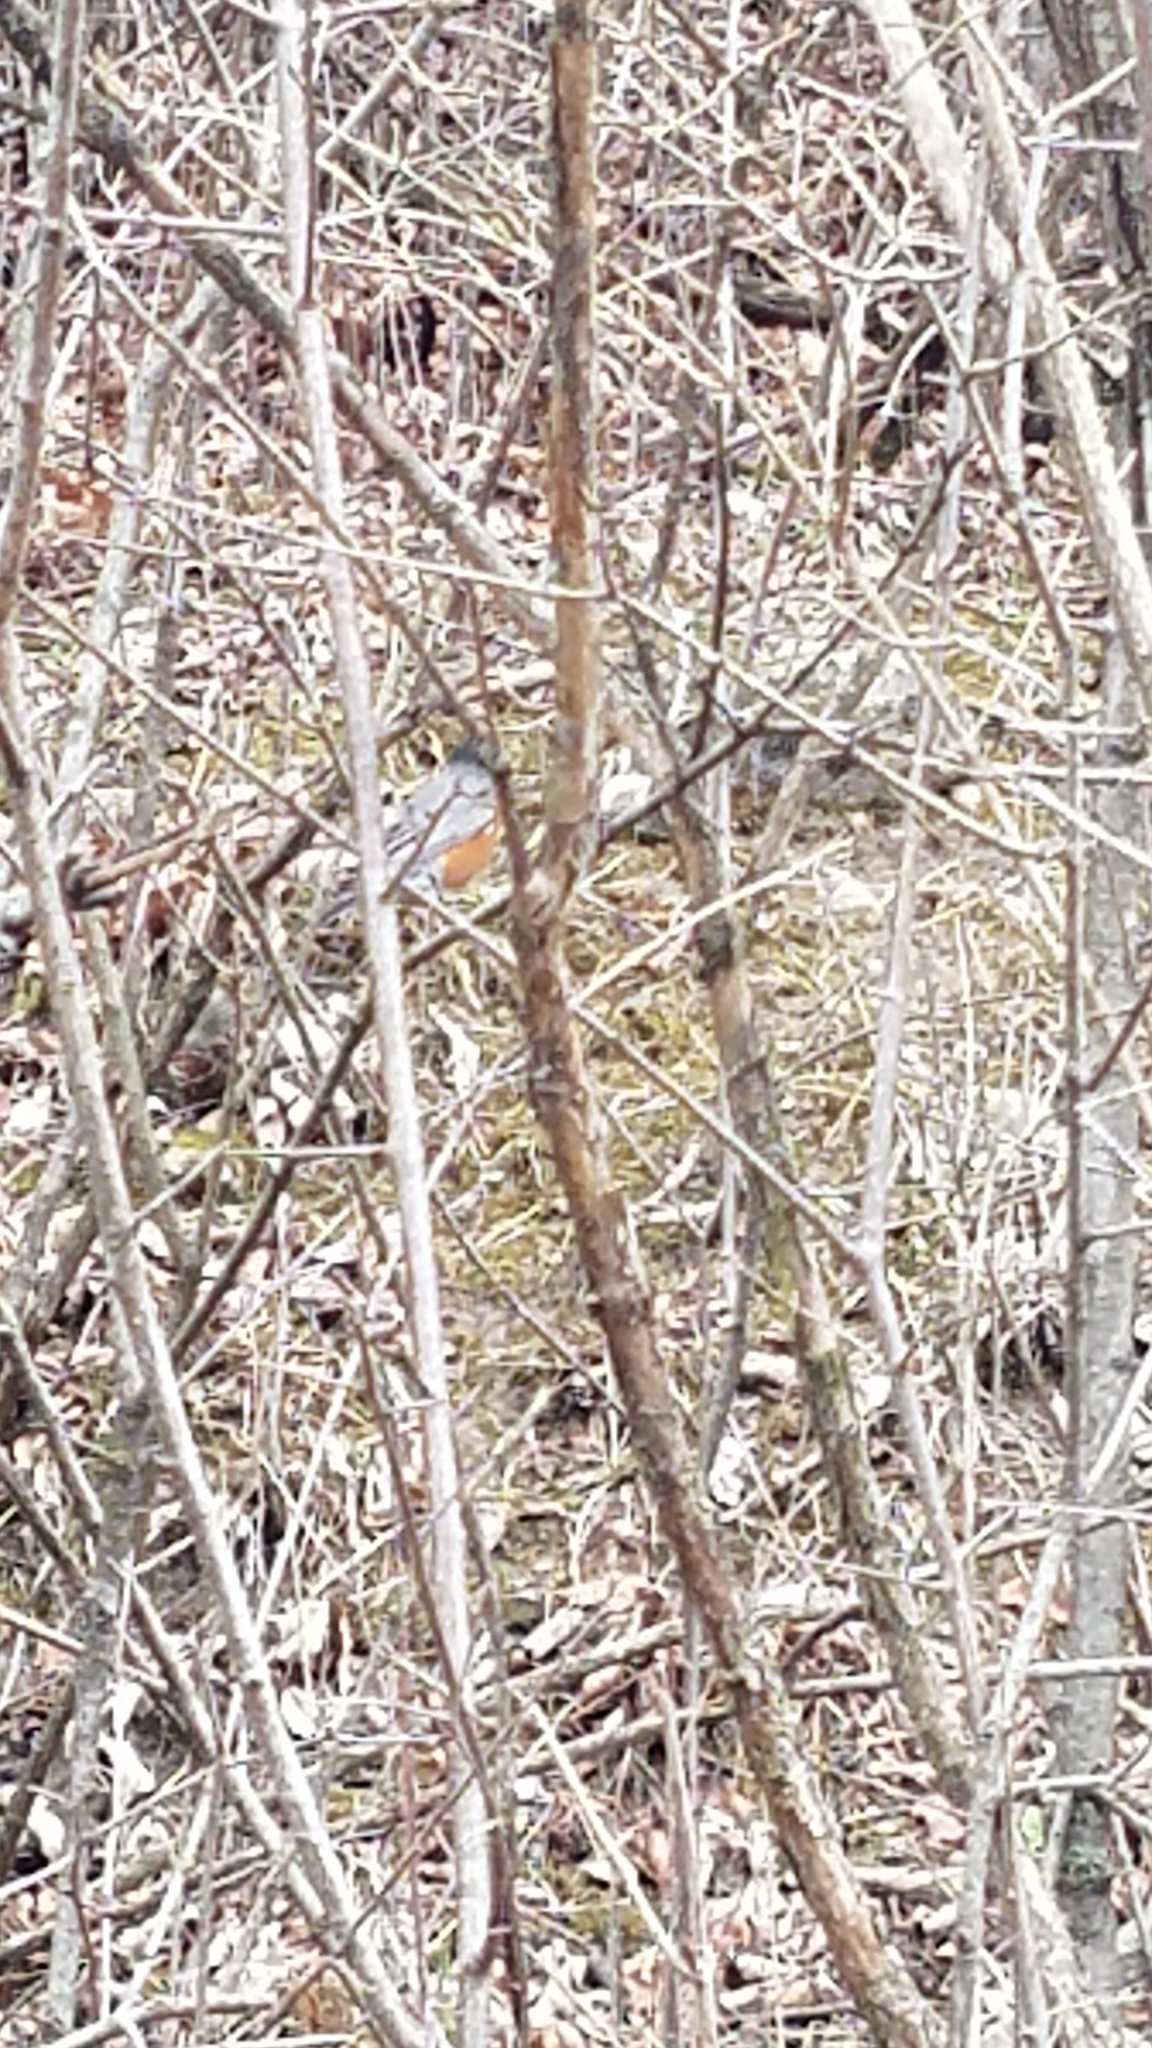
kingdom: Animalia
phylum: Chordata
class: Aves
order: Passeriformes
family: Turdidae
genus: Turdus
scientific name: Turdus migratorius
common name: American robin
